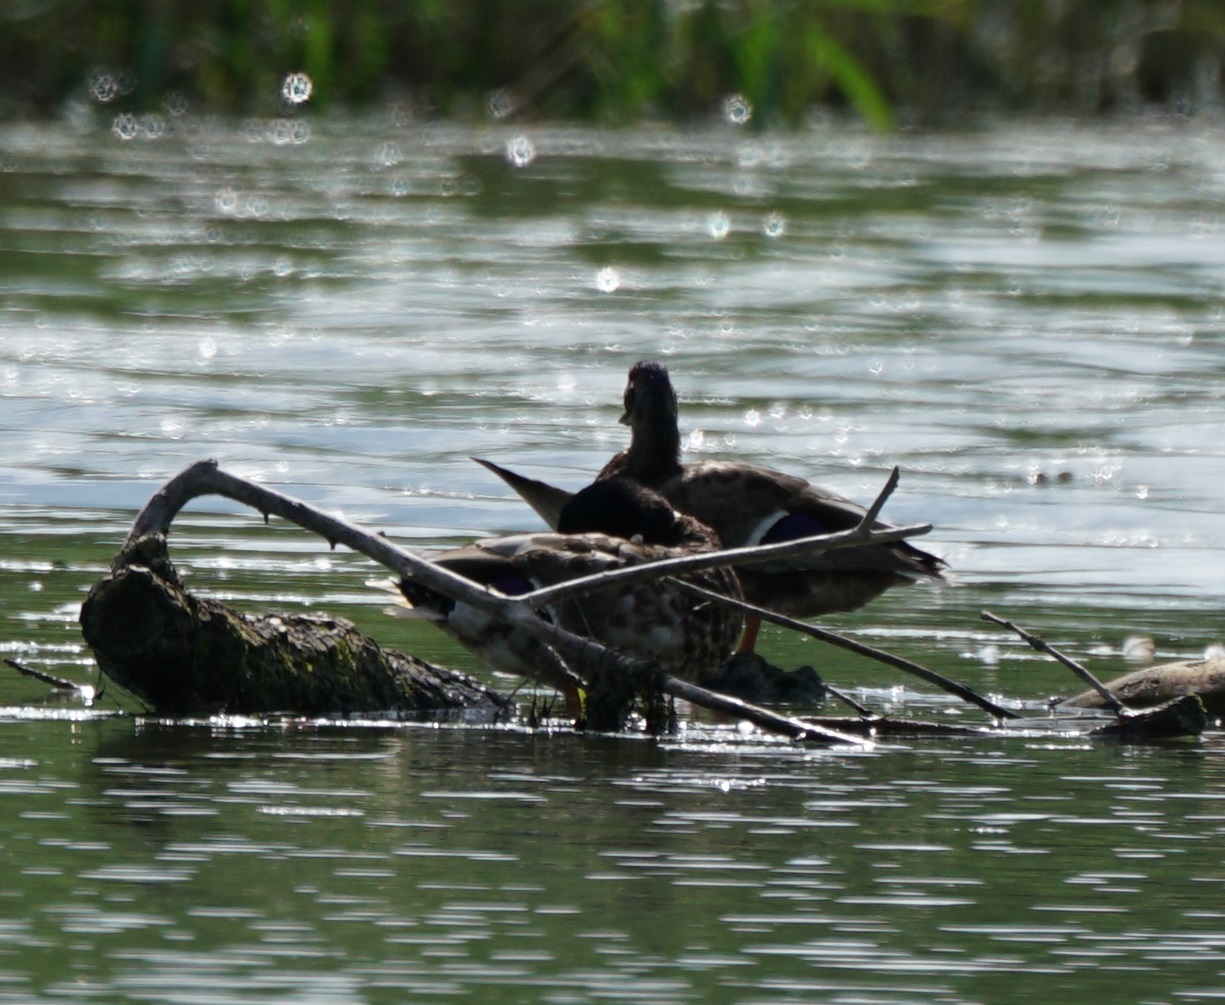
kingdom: Animalia
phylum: Chordata
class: Aves
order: Anseriformes
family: Anatidae
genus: Anas
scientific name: Anas platyrhynchos
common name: Mallard
